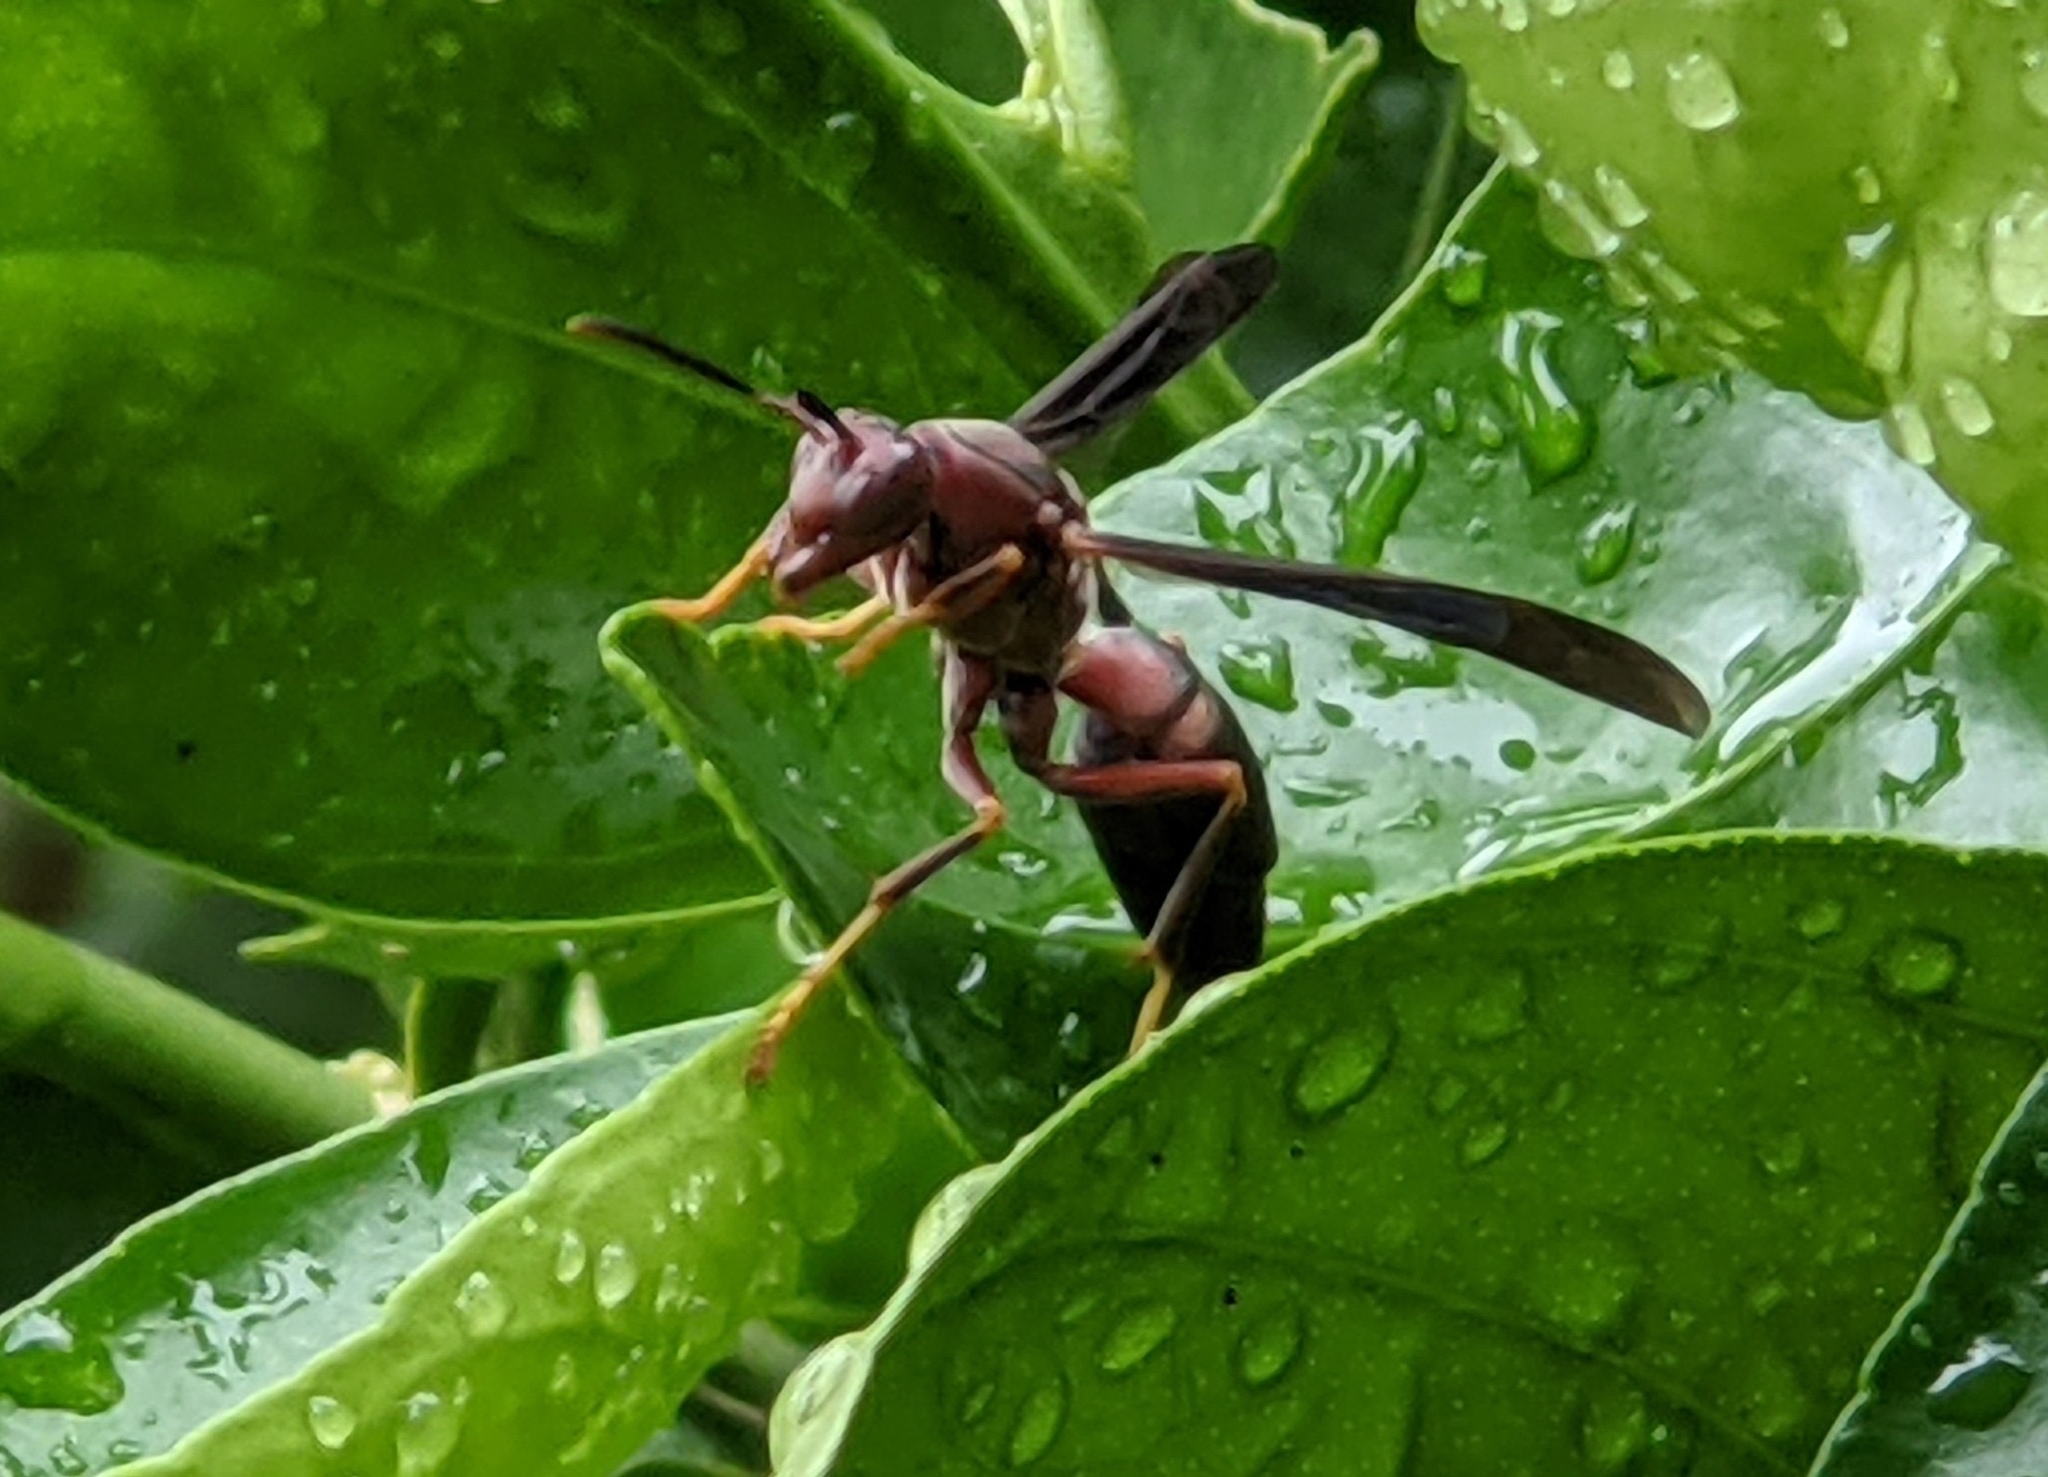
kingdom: Animalia
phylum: Arthropoda
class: Insecta
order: Hymenoptera
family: Eumenidae
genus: Polistes
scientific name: Polistes metricus
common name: Metric paper wasp
